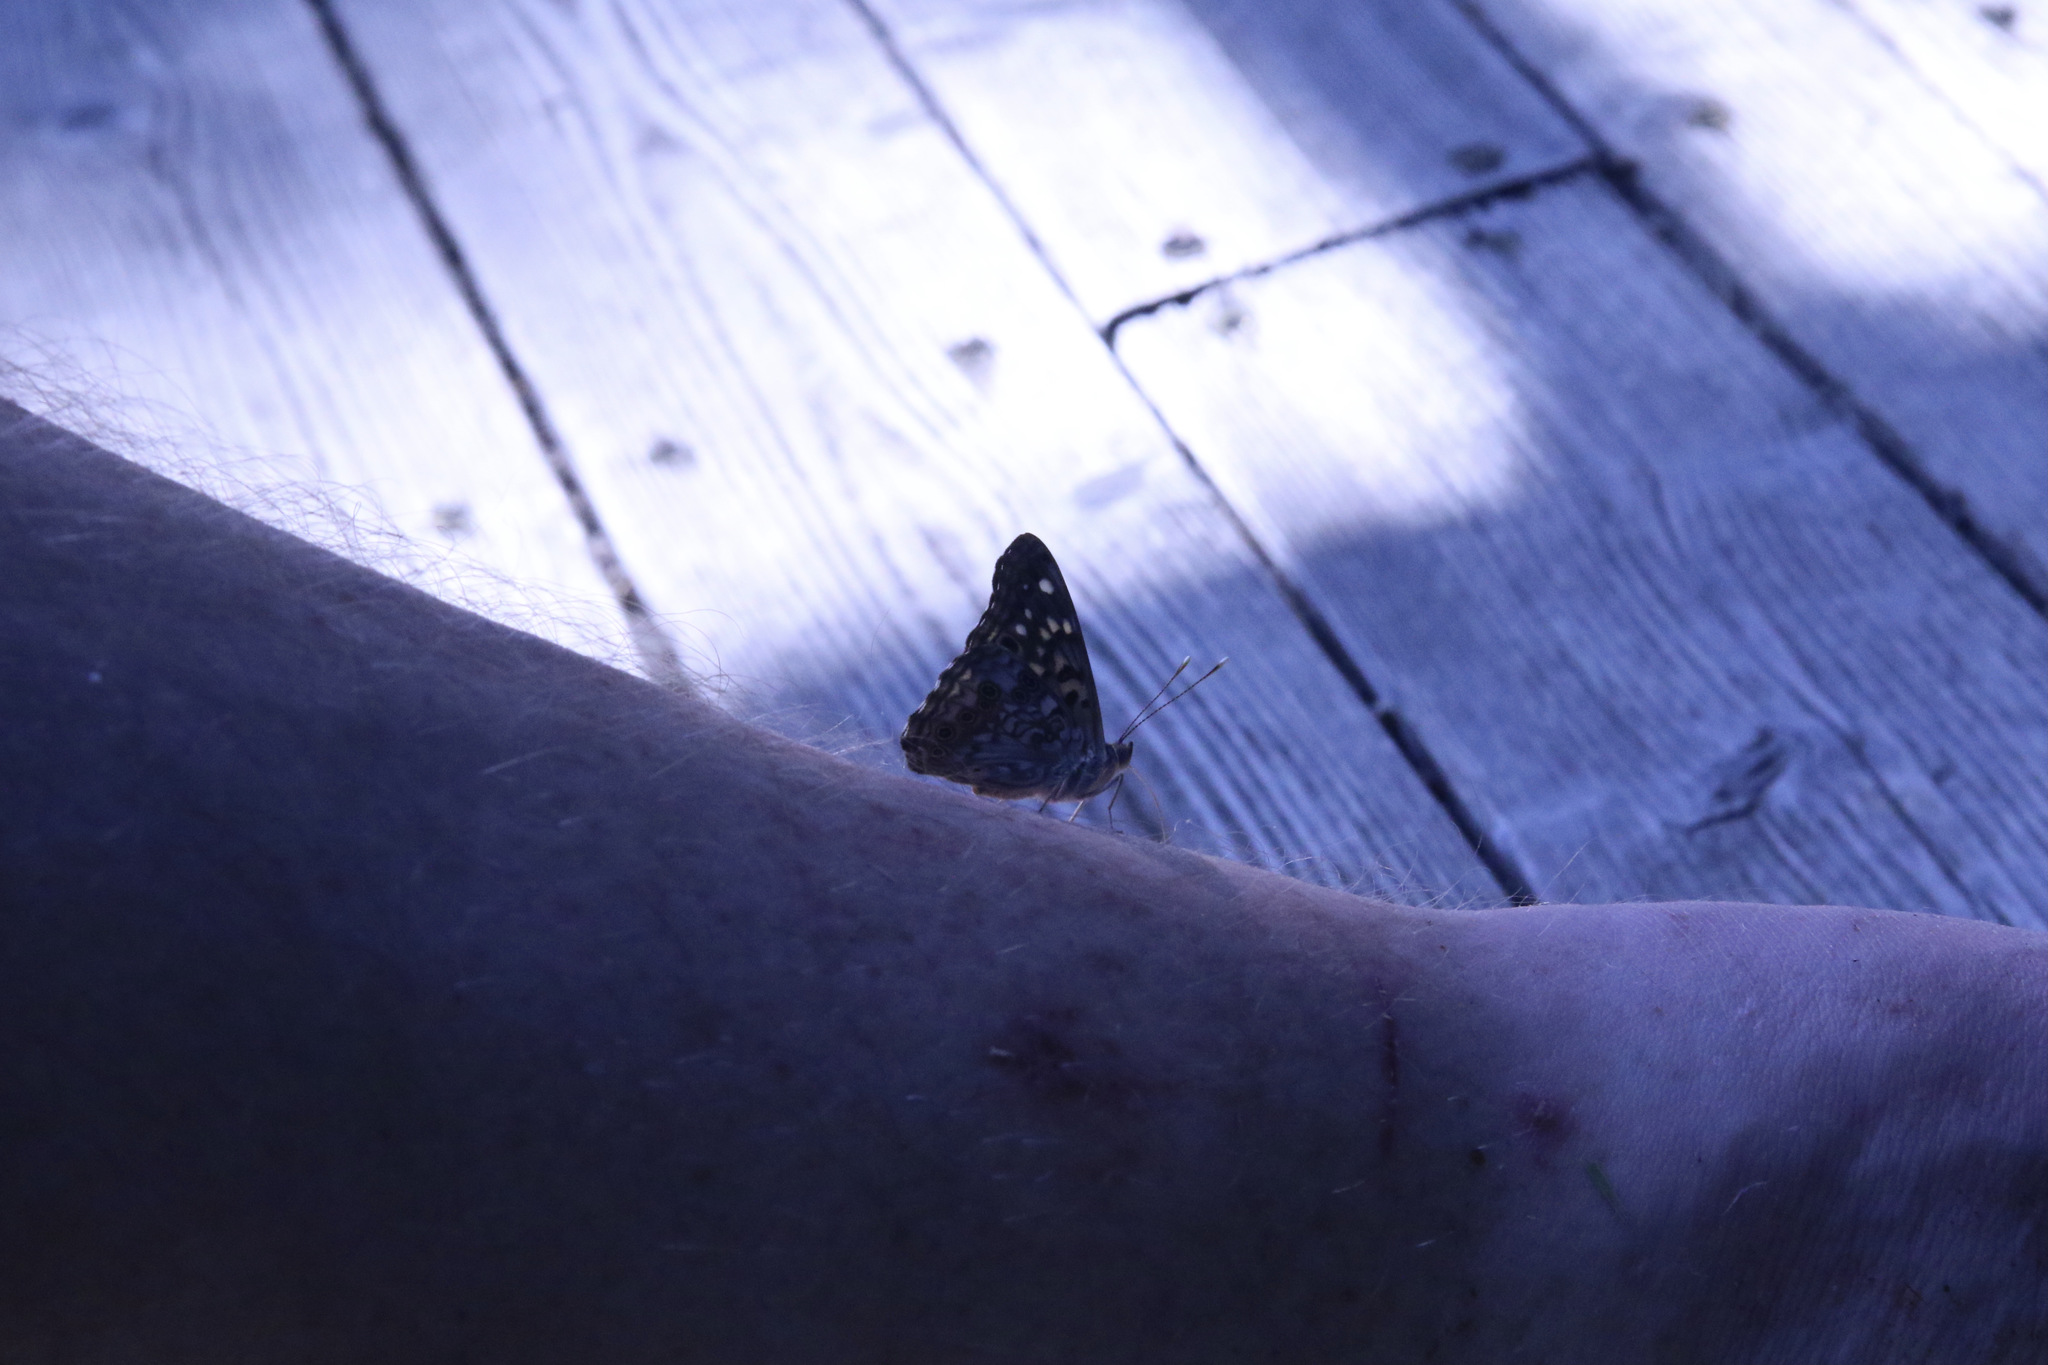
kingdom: Animalia
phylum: Arthropoda
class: Insecta
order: Lepidoptera
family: Nymphalidae
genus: Asterocampa
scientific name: Asterocampa celtis
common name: Hackberry emperor
